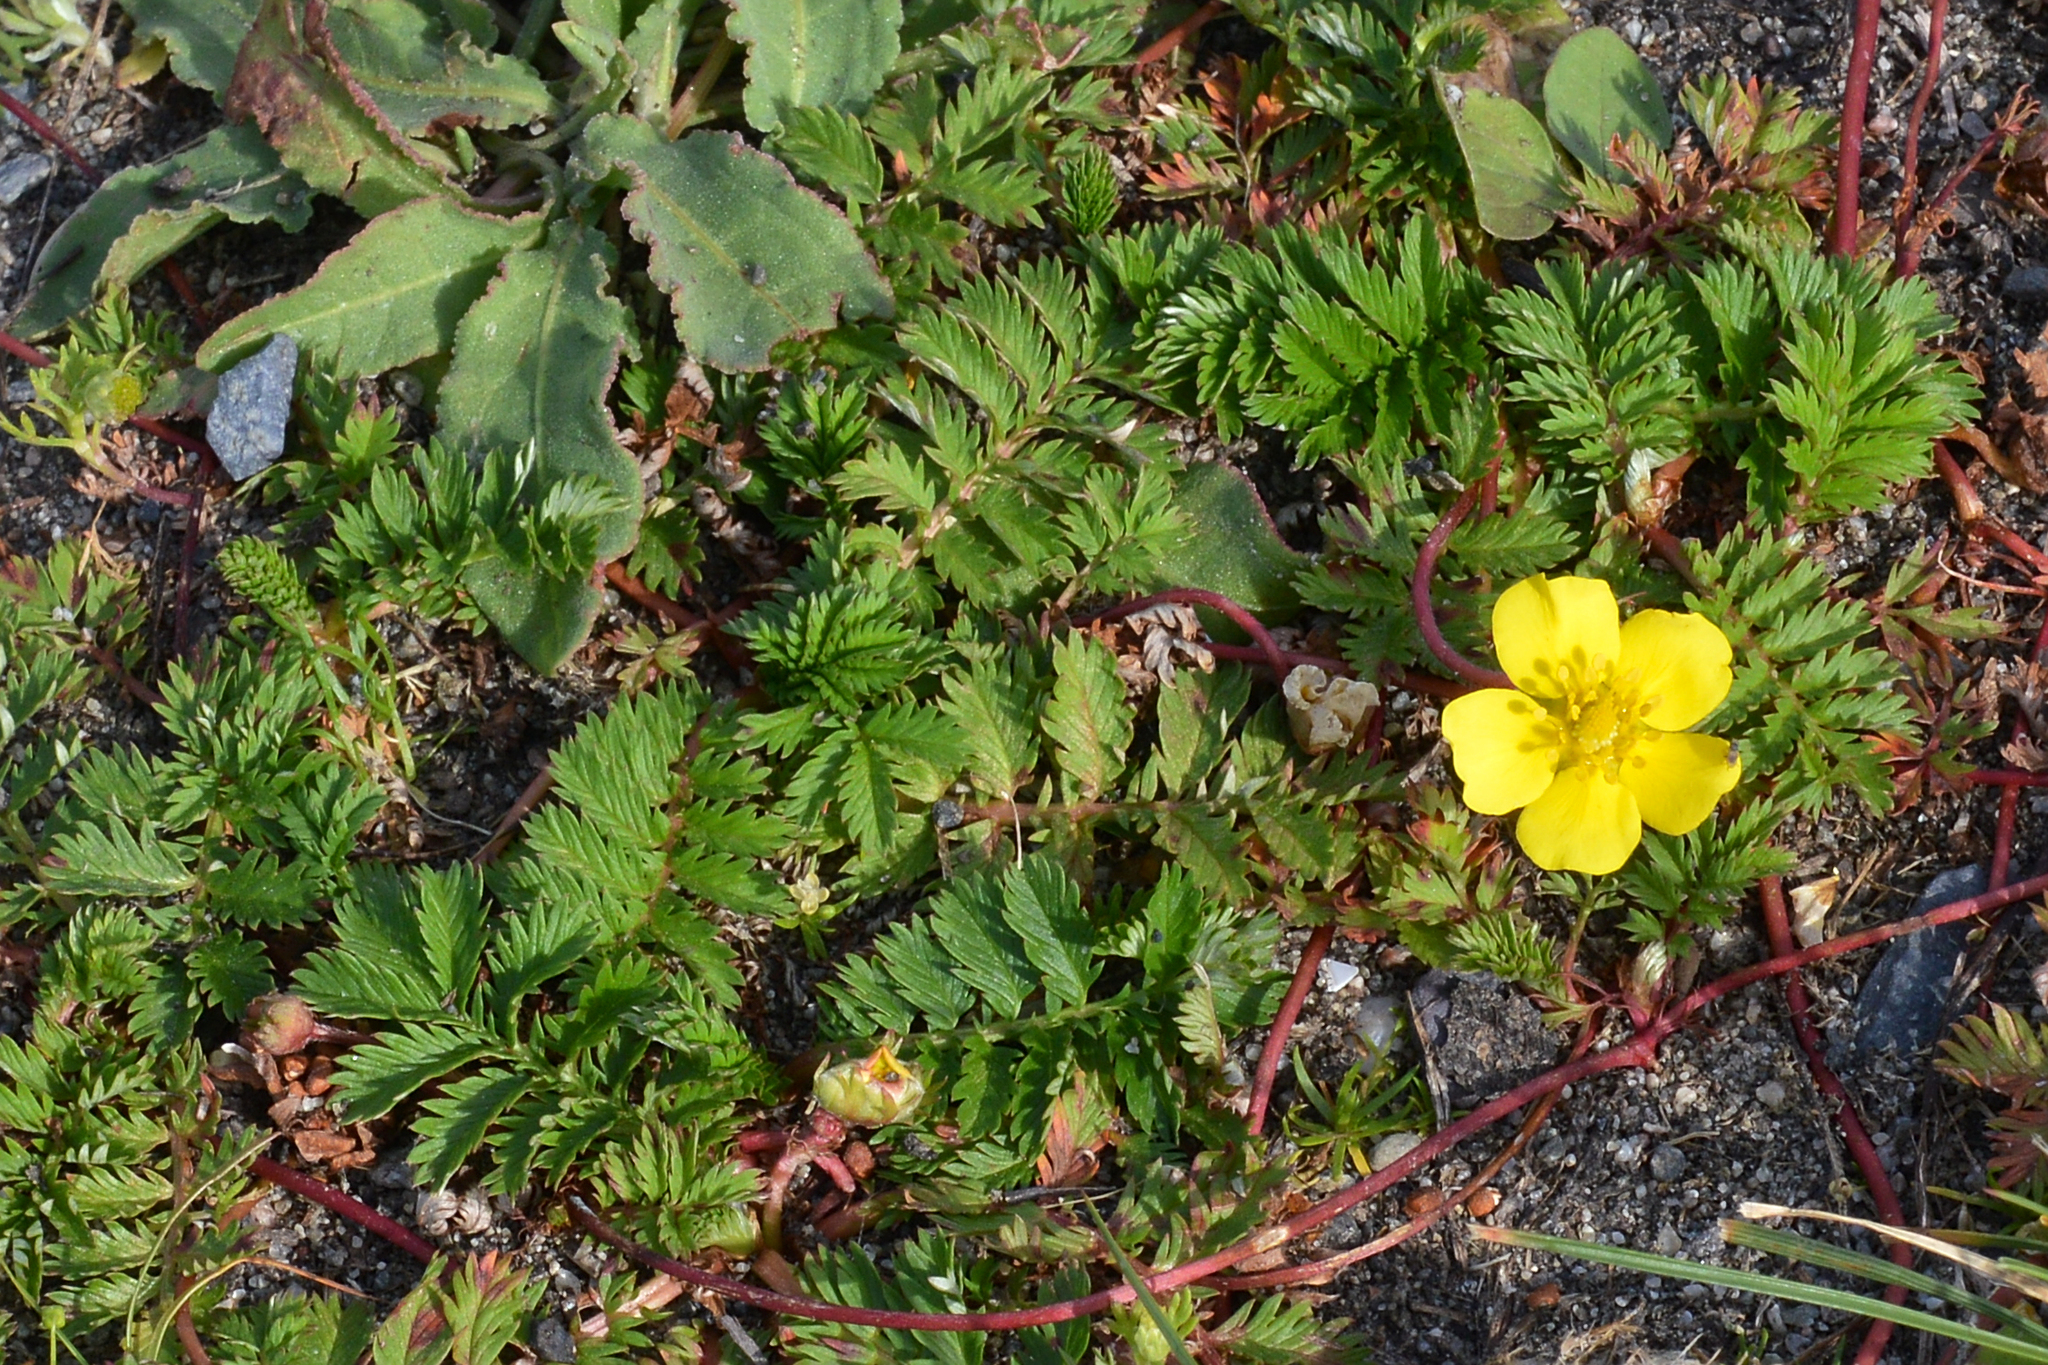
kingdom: Plantae
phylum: Tracheophyta
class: Magnoliopsida
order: Rosales
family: Rosaceae
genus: Argentina
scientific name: Argentina anserina
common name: Common silverweed
